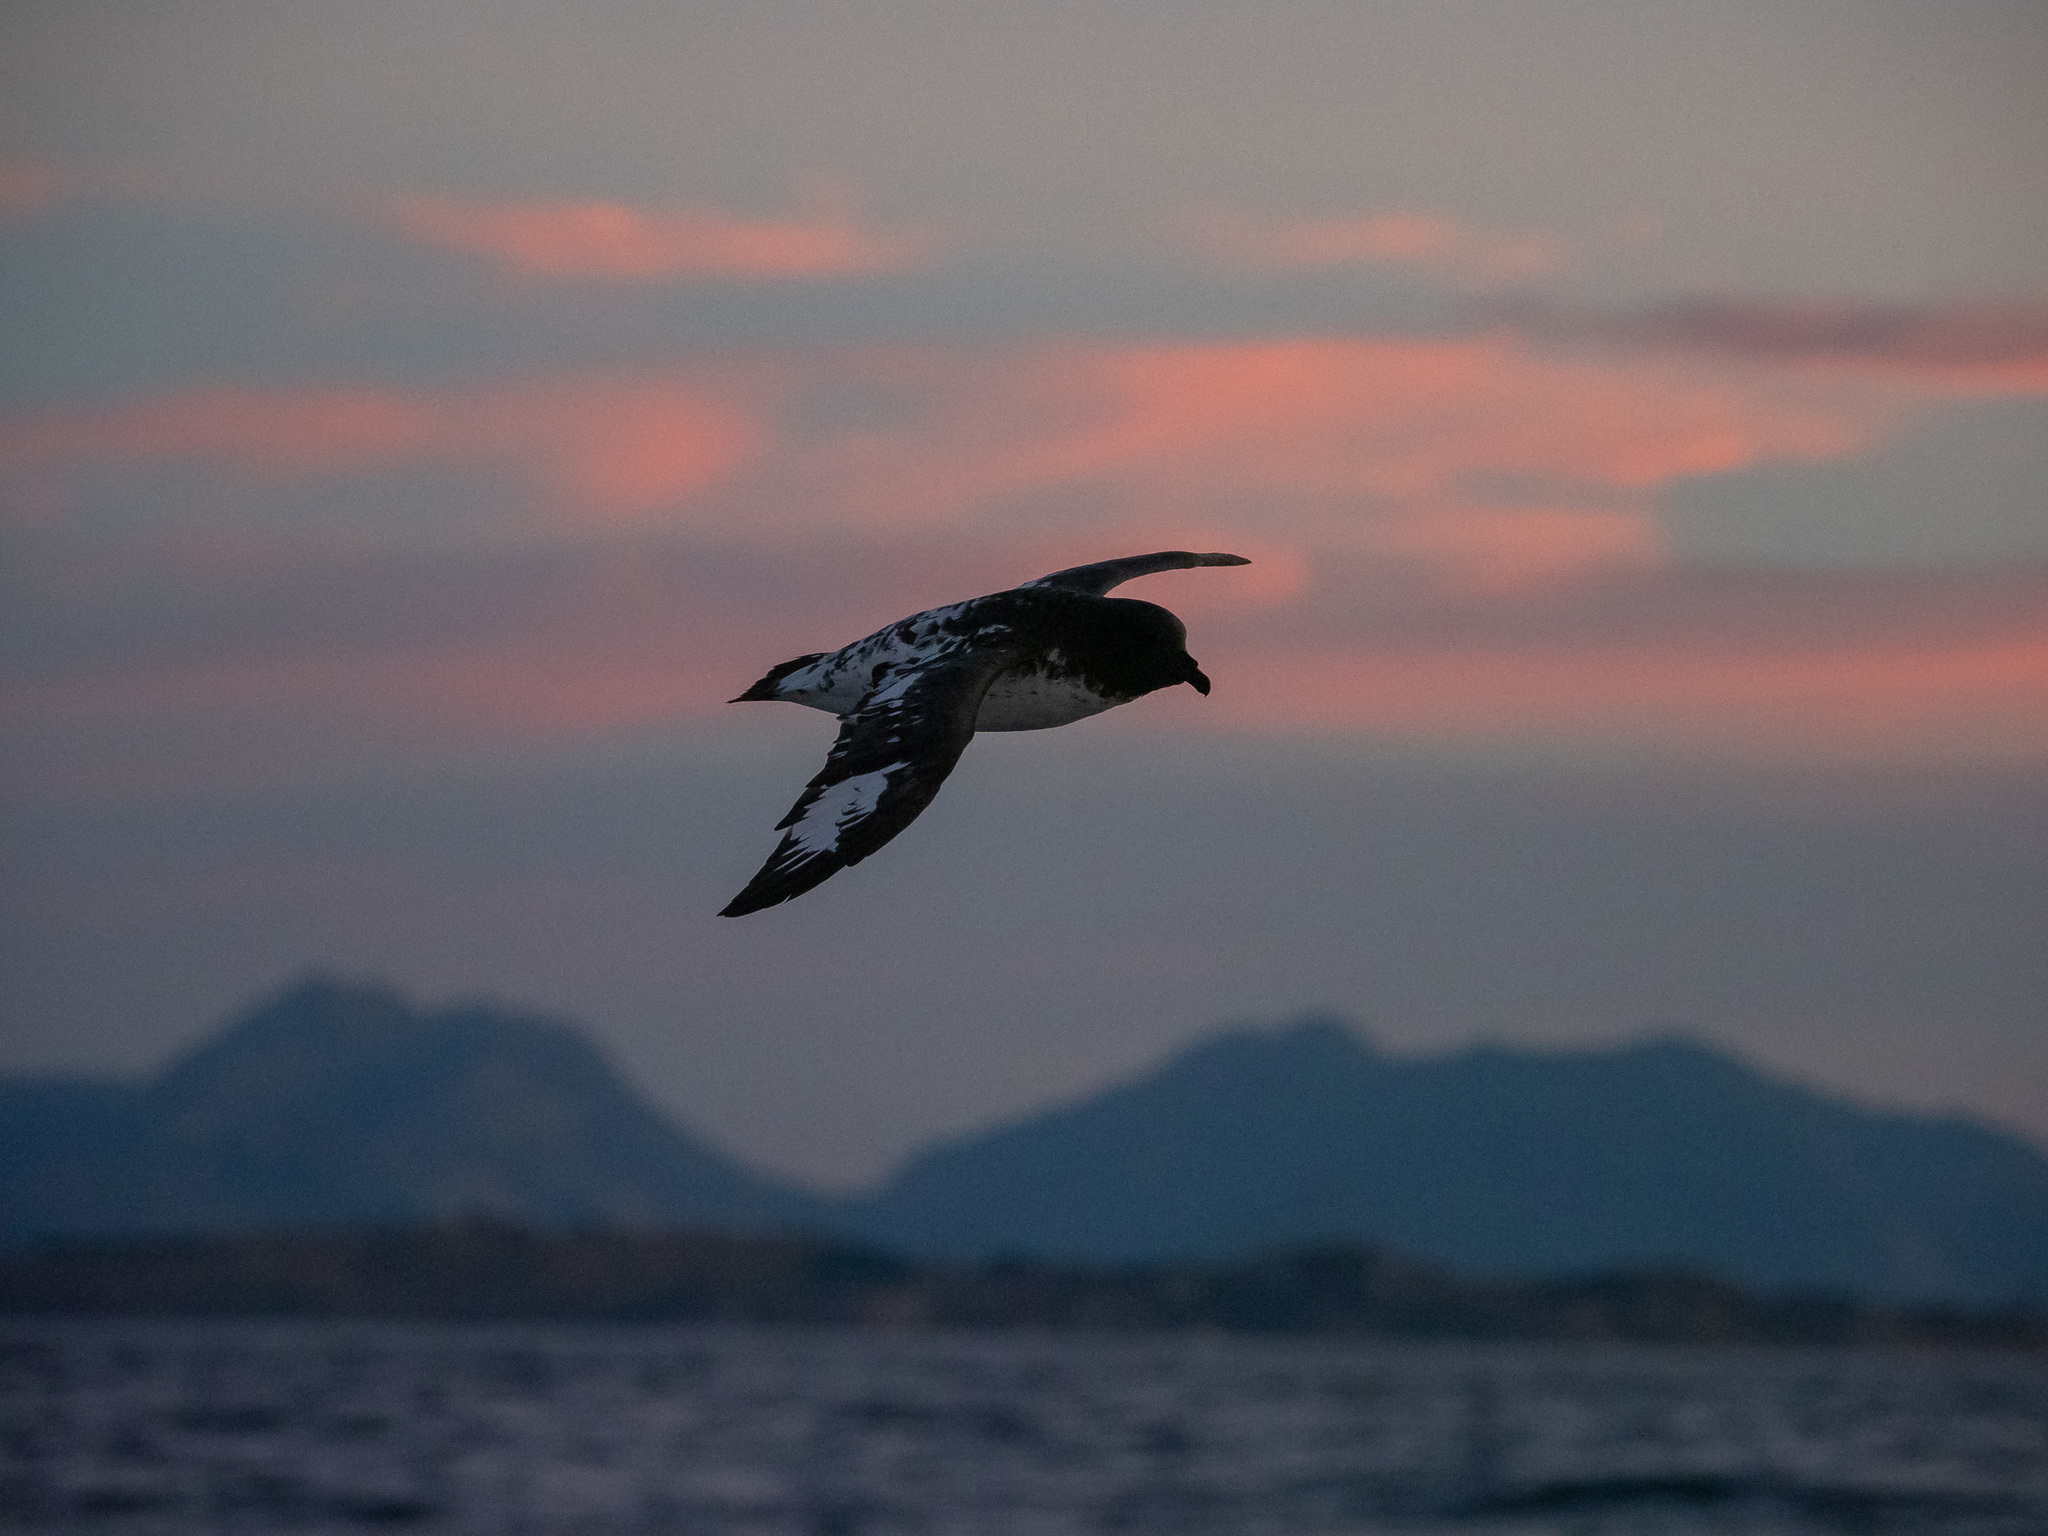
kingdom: Animalia
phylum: Chordata
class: Aves
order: Procellariiformes
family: Procellariidae
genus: Daption
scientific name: Daption capense
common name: Cape petrel
